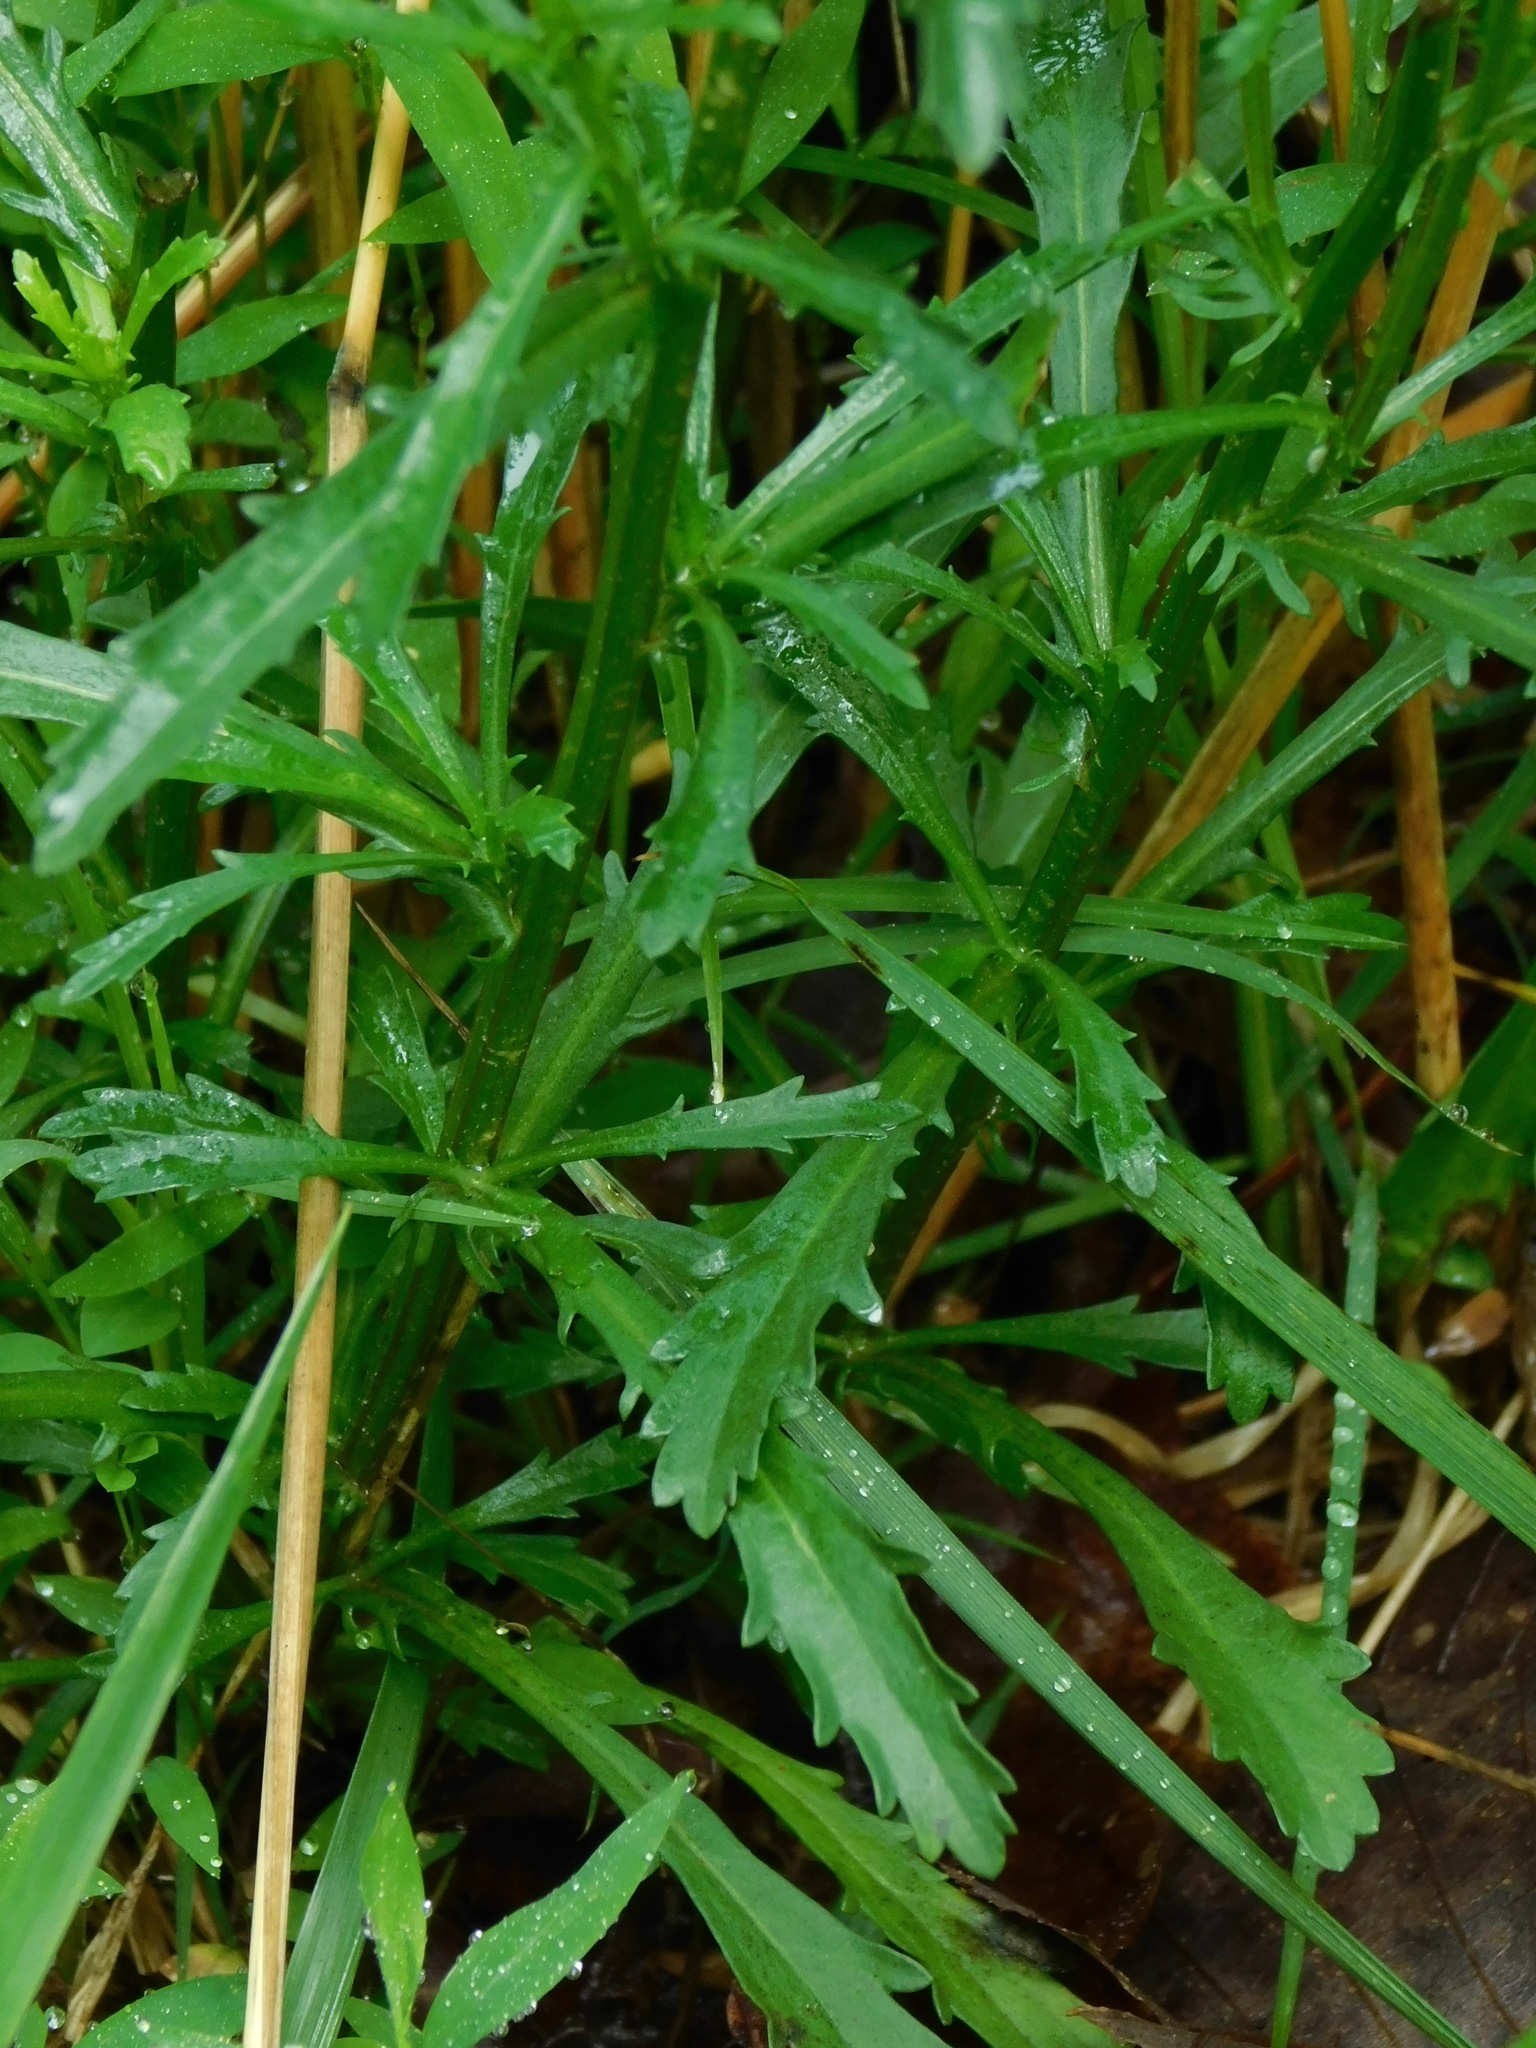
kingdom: Plantae
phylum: Tracheophyta
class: Magnoliopsida
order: Asterales
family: Asteraceae
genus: Leucanthemum
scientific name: Leucanthemum vulgare
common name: Oxeye daisy
